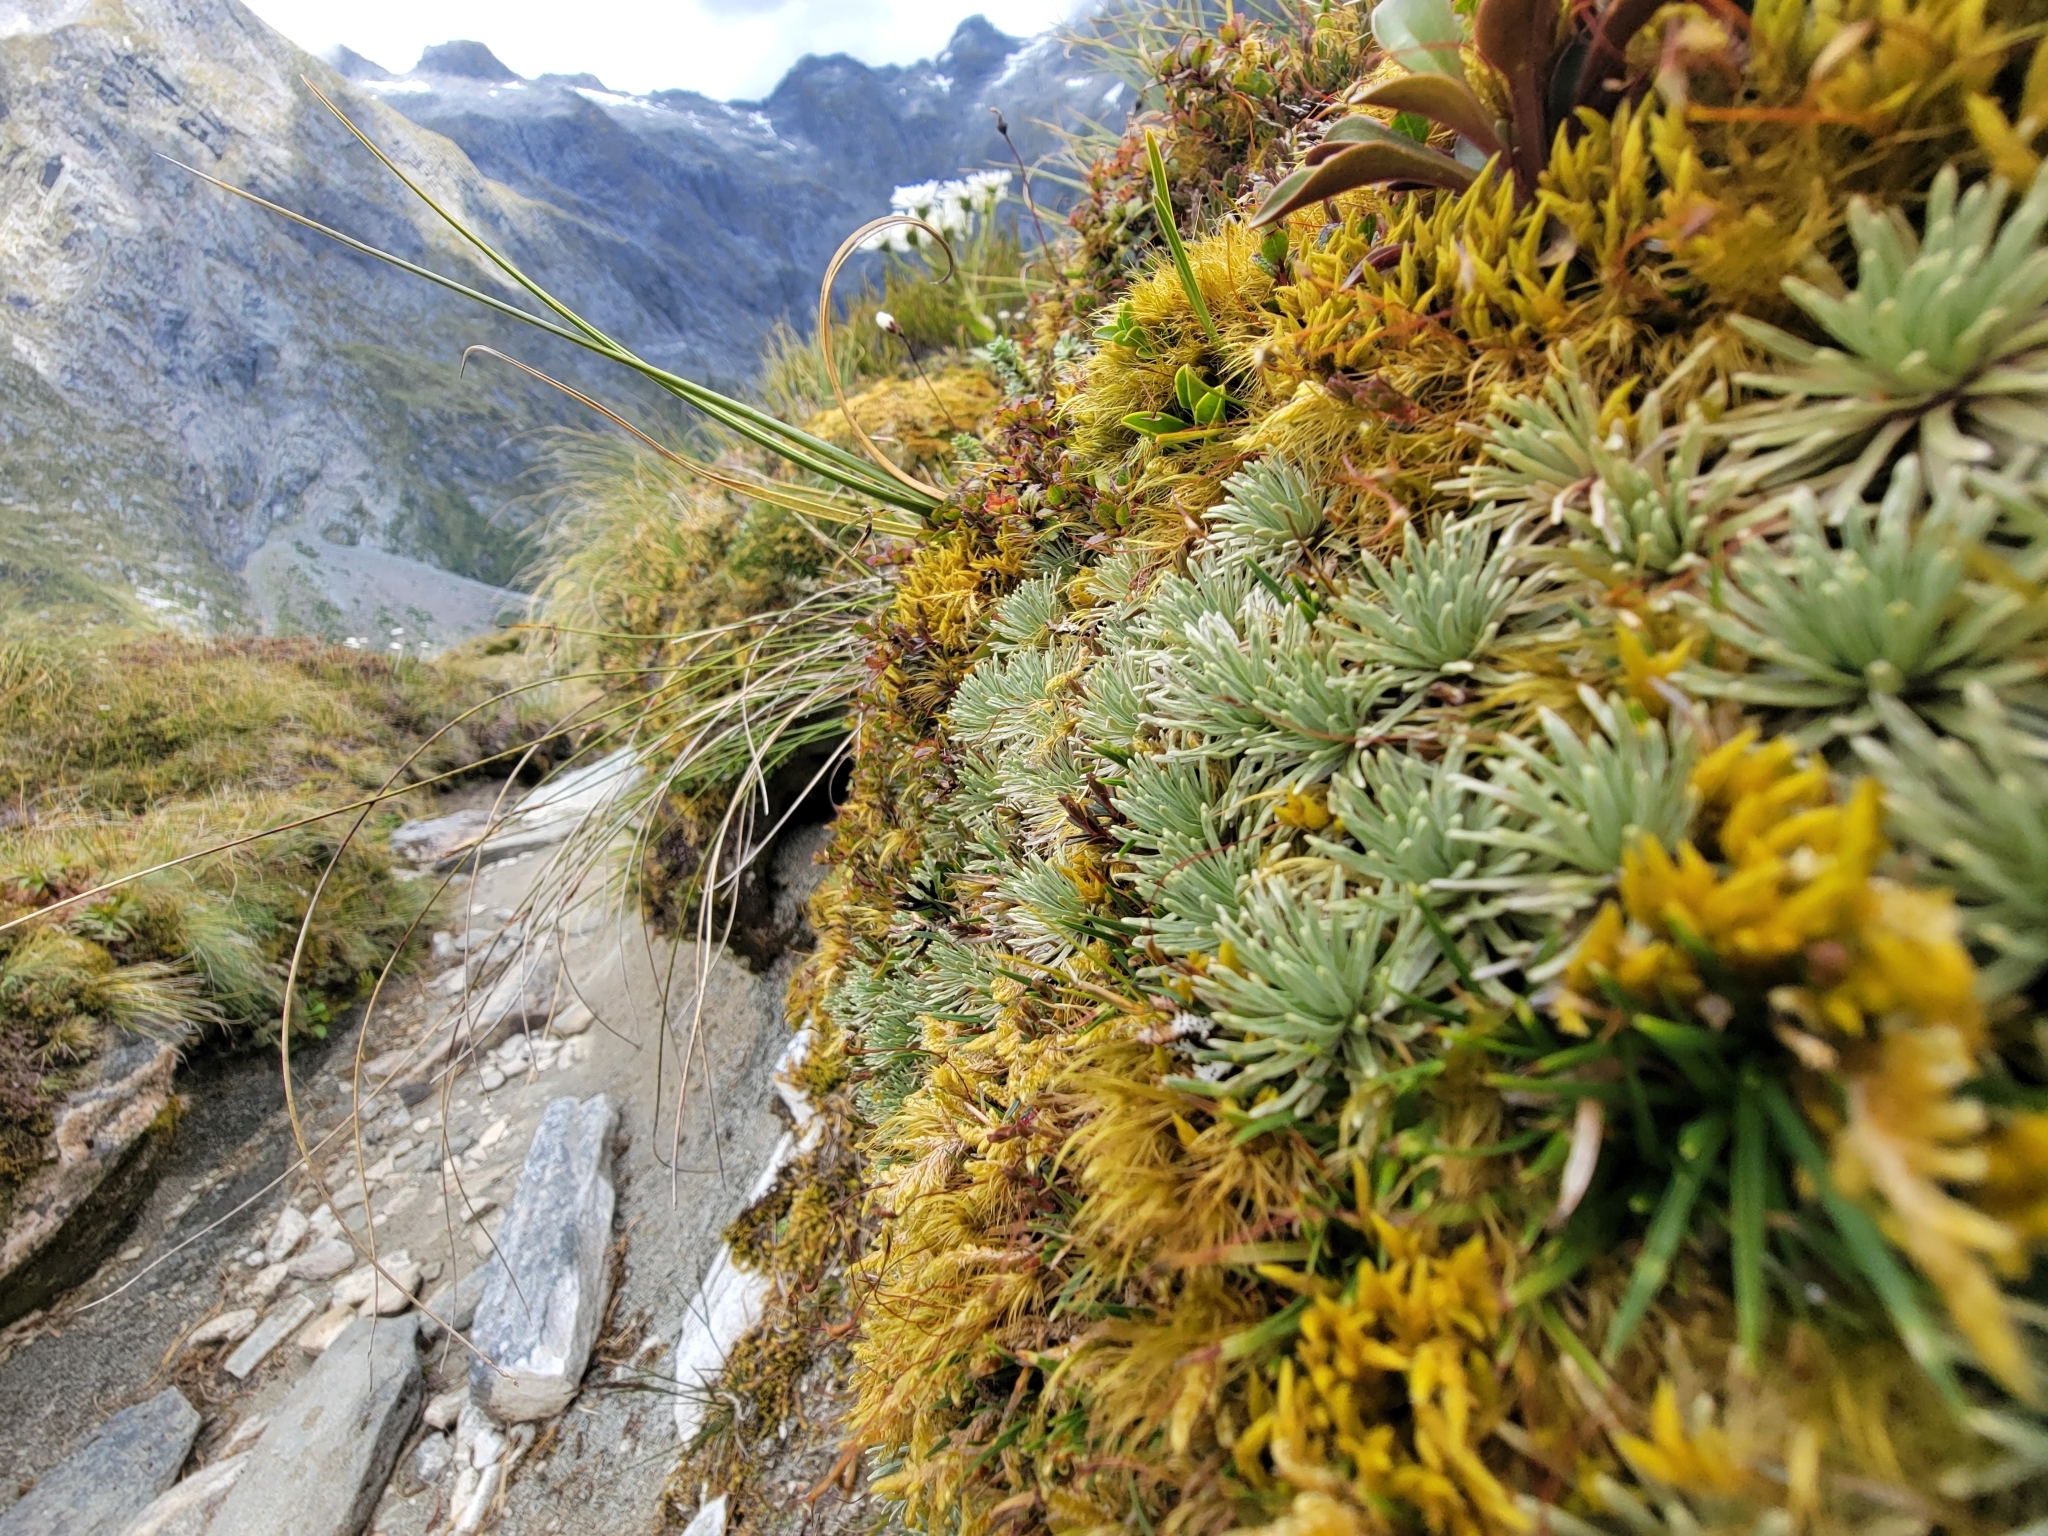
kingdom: Plantae
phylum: Tracheophyta
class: Magnoliopsida
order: Asterales
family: Asteraceae
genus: Celmisia
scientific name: Celmisia sessiliflora
